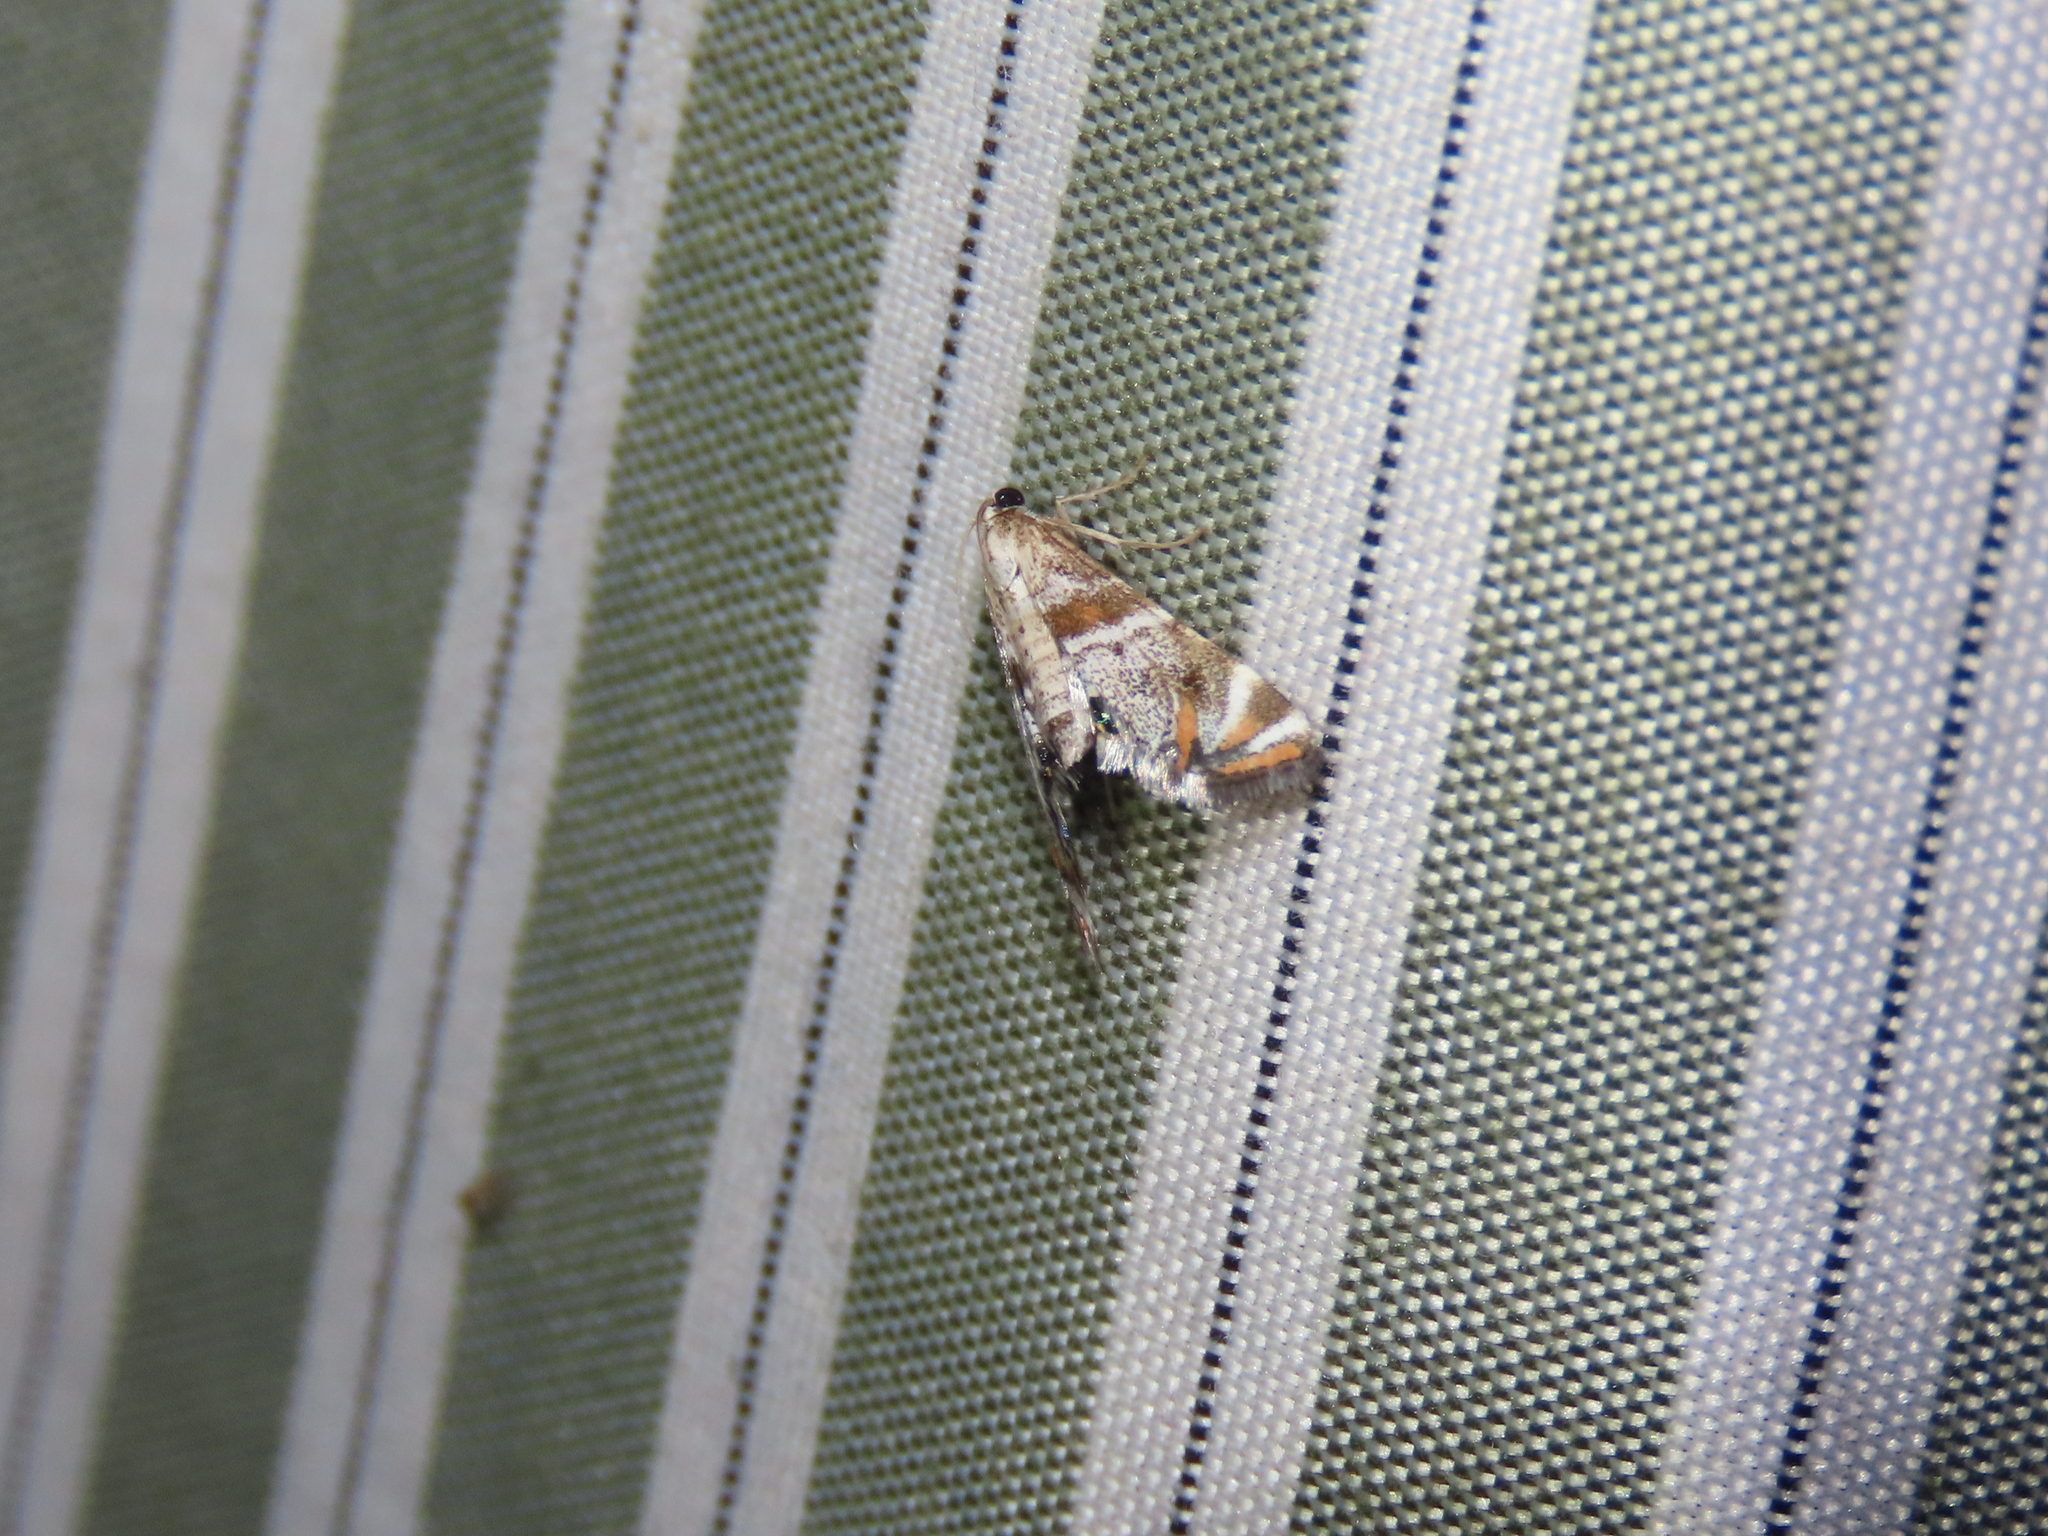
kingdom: Animalia
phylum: Arthropoda
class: Insecta
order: Lepidoptera
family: Crambidae
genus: Petrophila
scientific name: Petrophila jaliscalis
